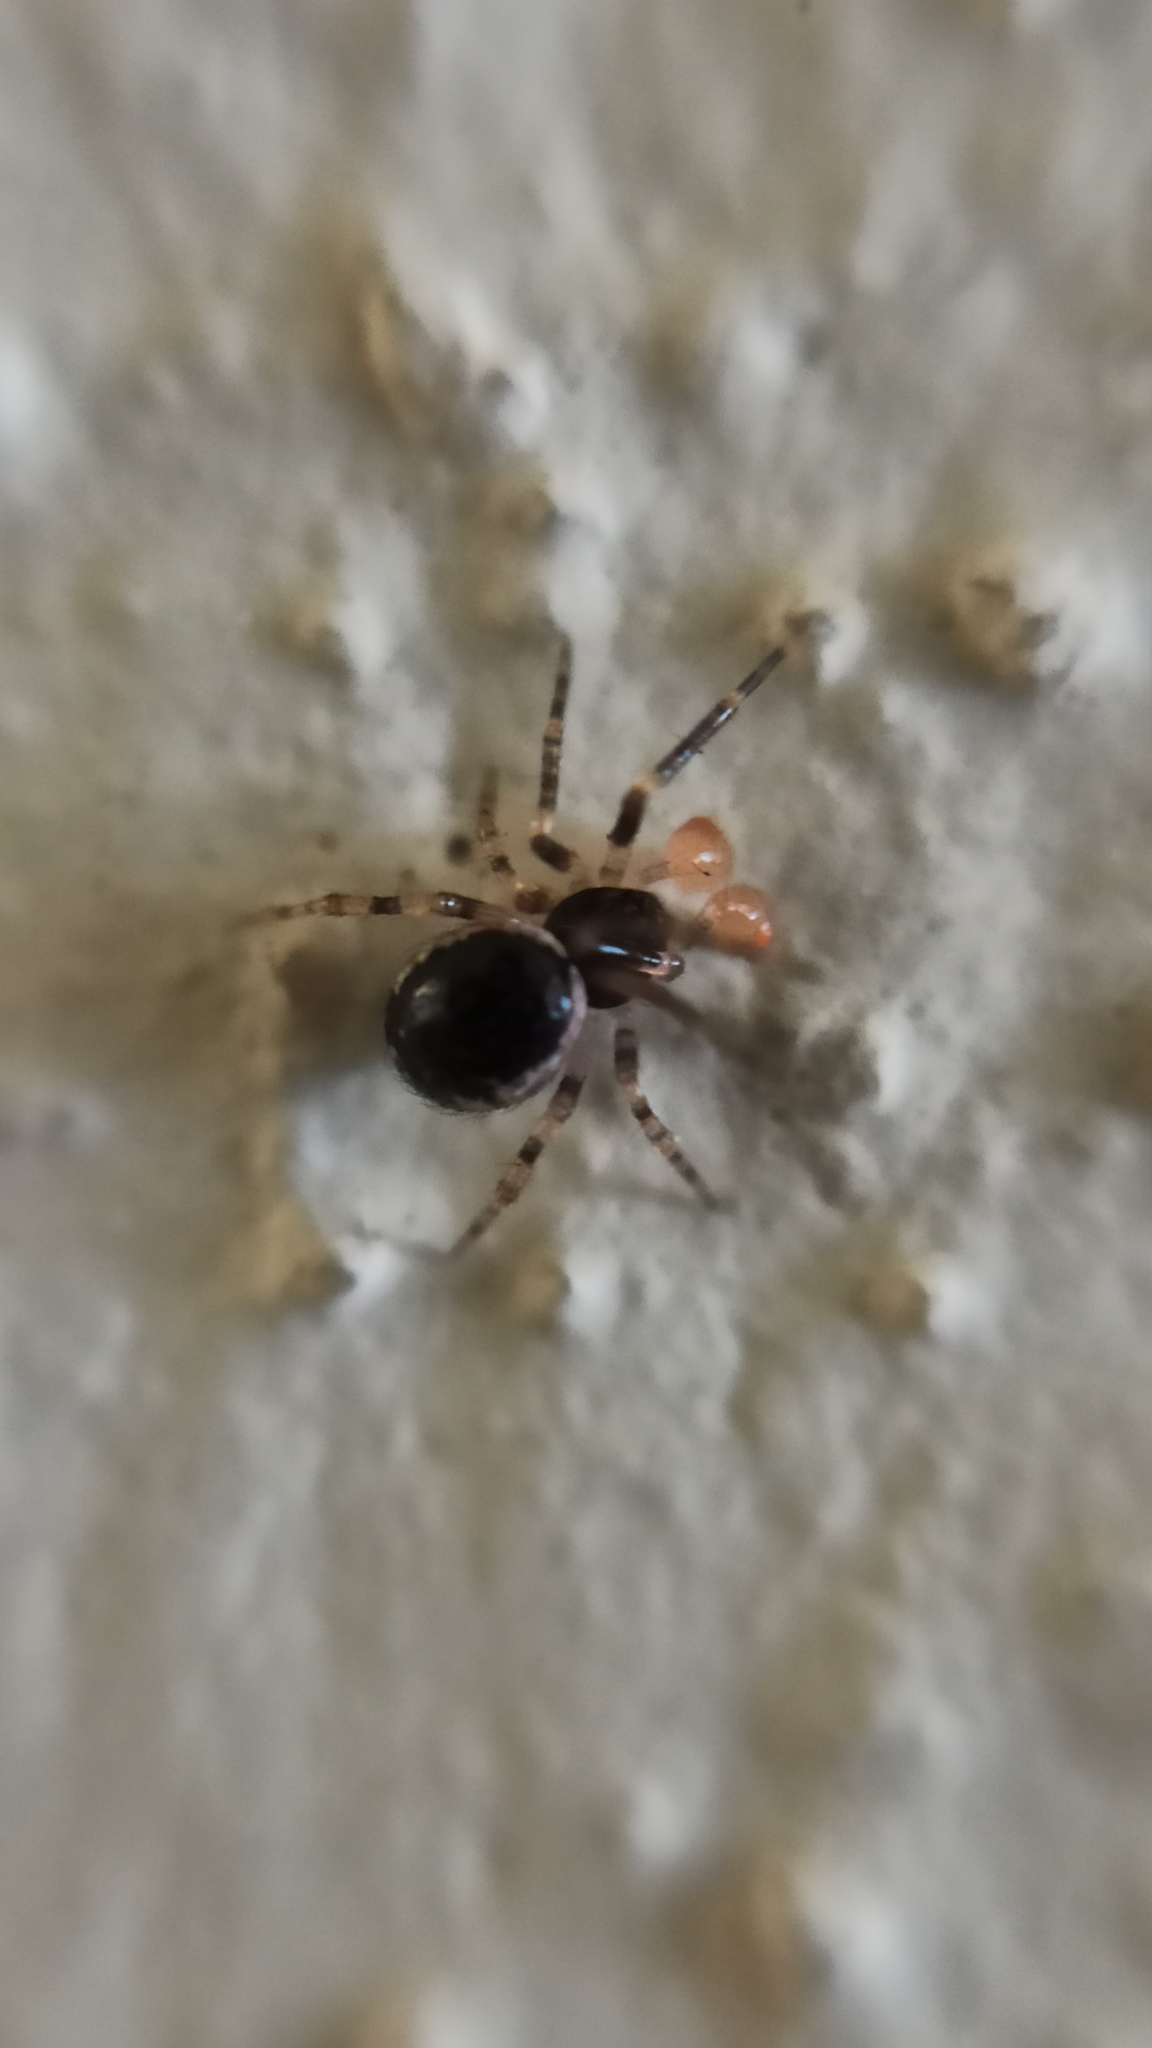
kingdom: Animalia
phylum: Arthropoda
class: Arachnida
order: Araneae
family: Theridiidae
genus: Sardinidion
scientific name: Sardinidion blackwalli
